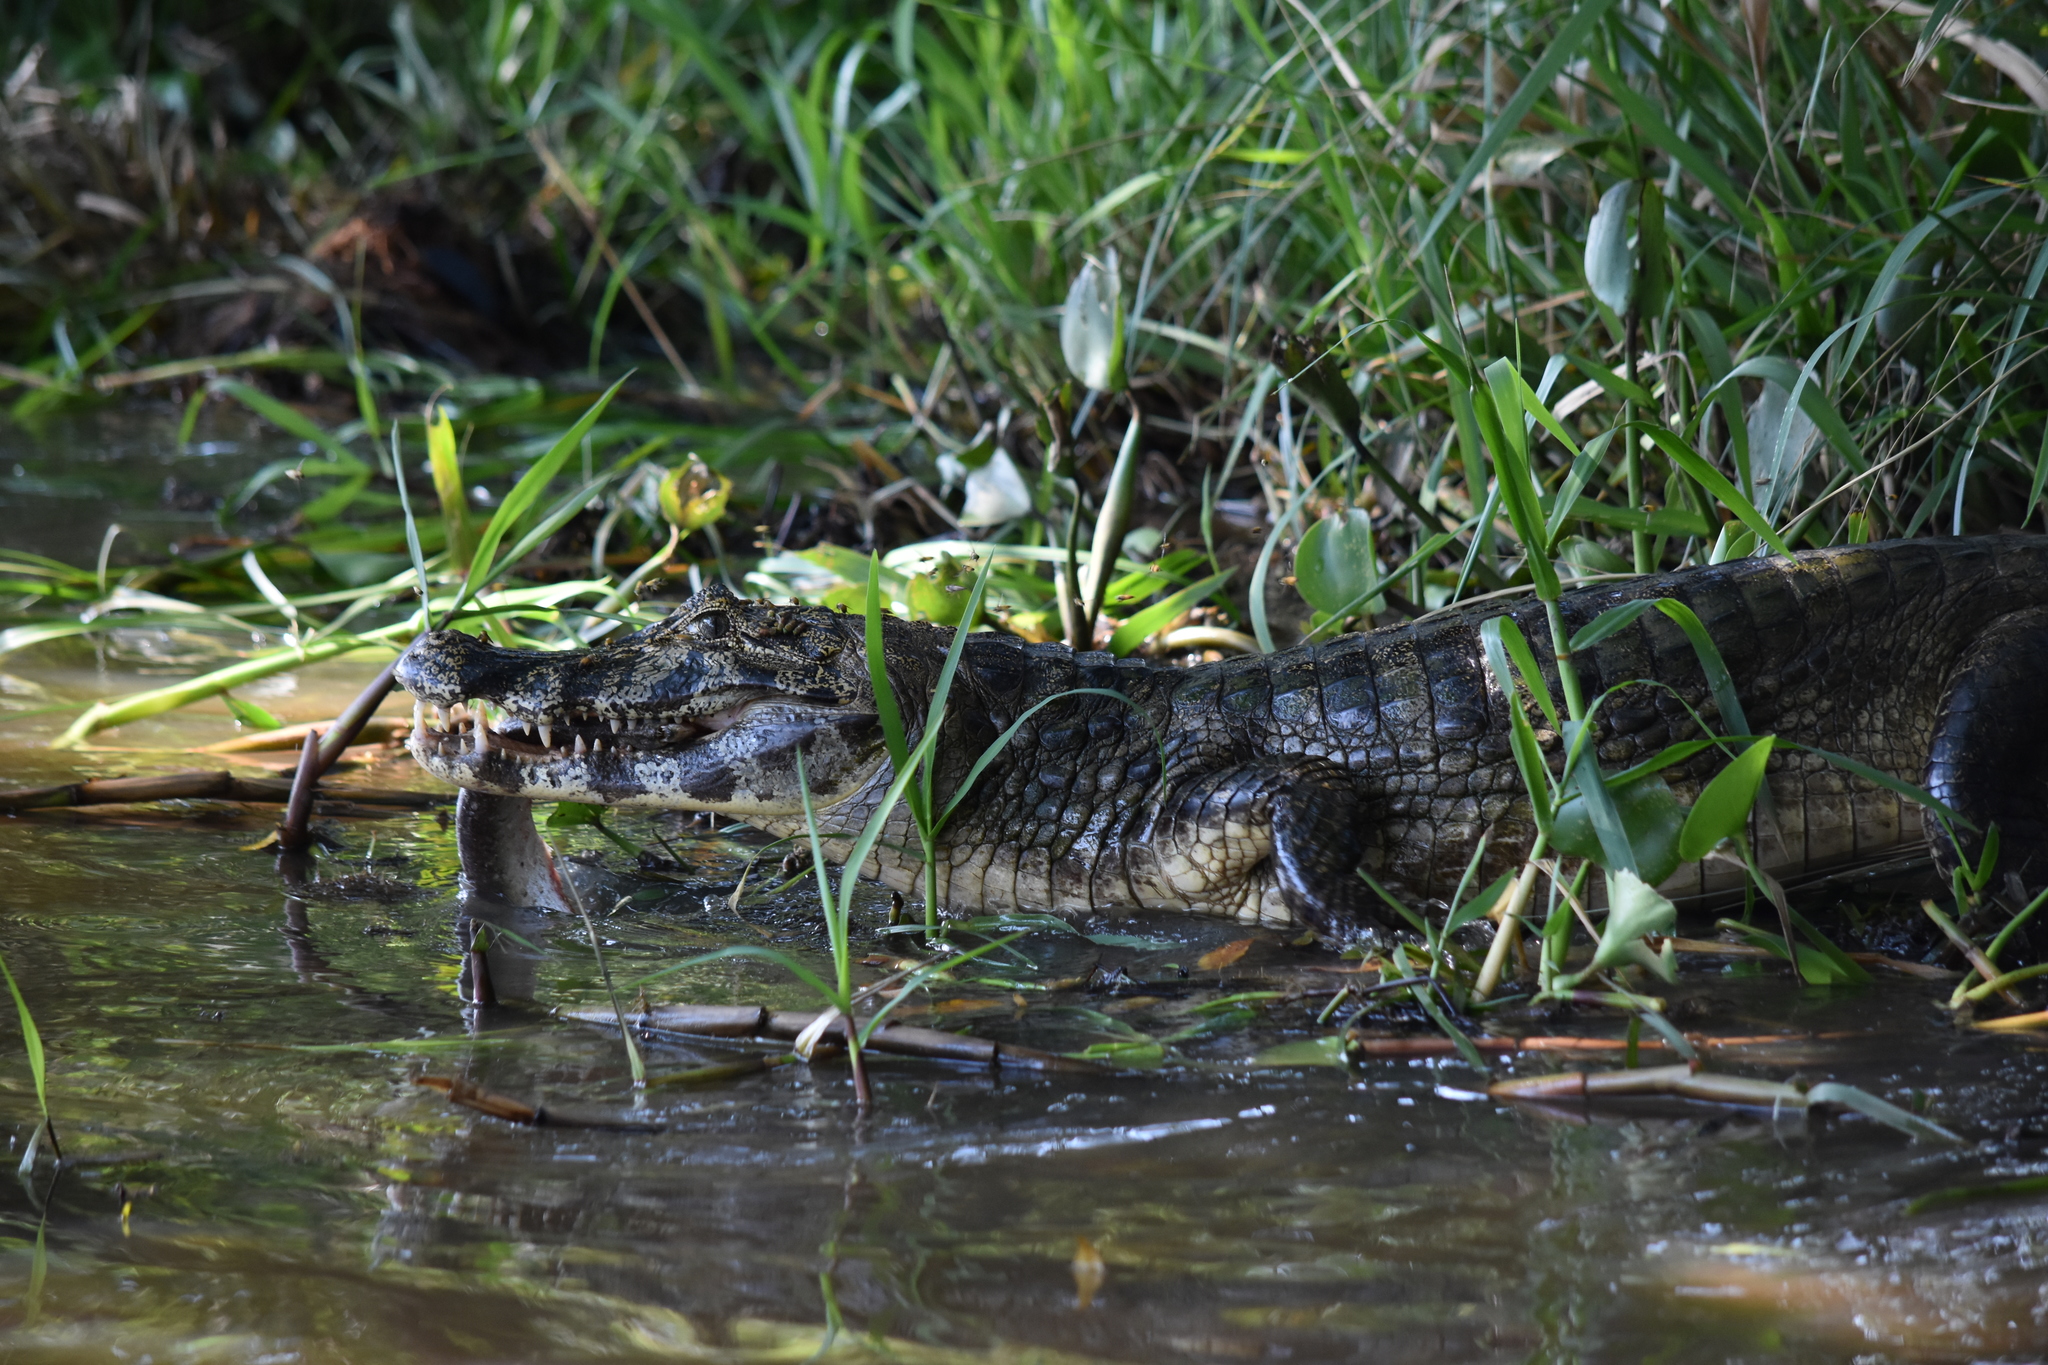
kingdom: Animalia
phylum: Chordata
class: Crocodylia
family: Alligatoridae
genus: Caiman
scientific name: Caiman yacare
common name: Yacare caiman
